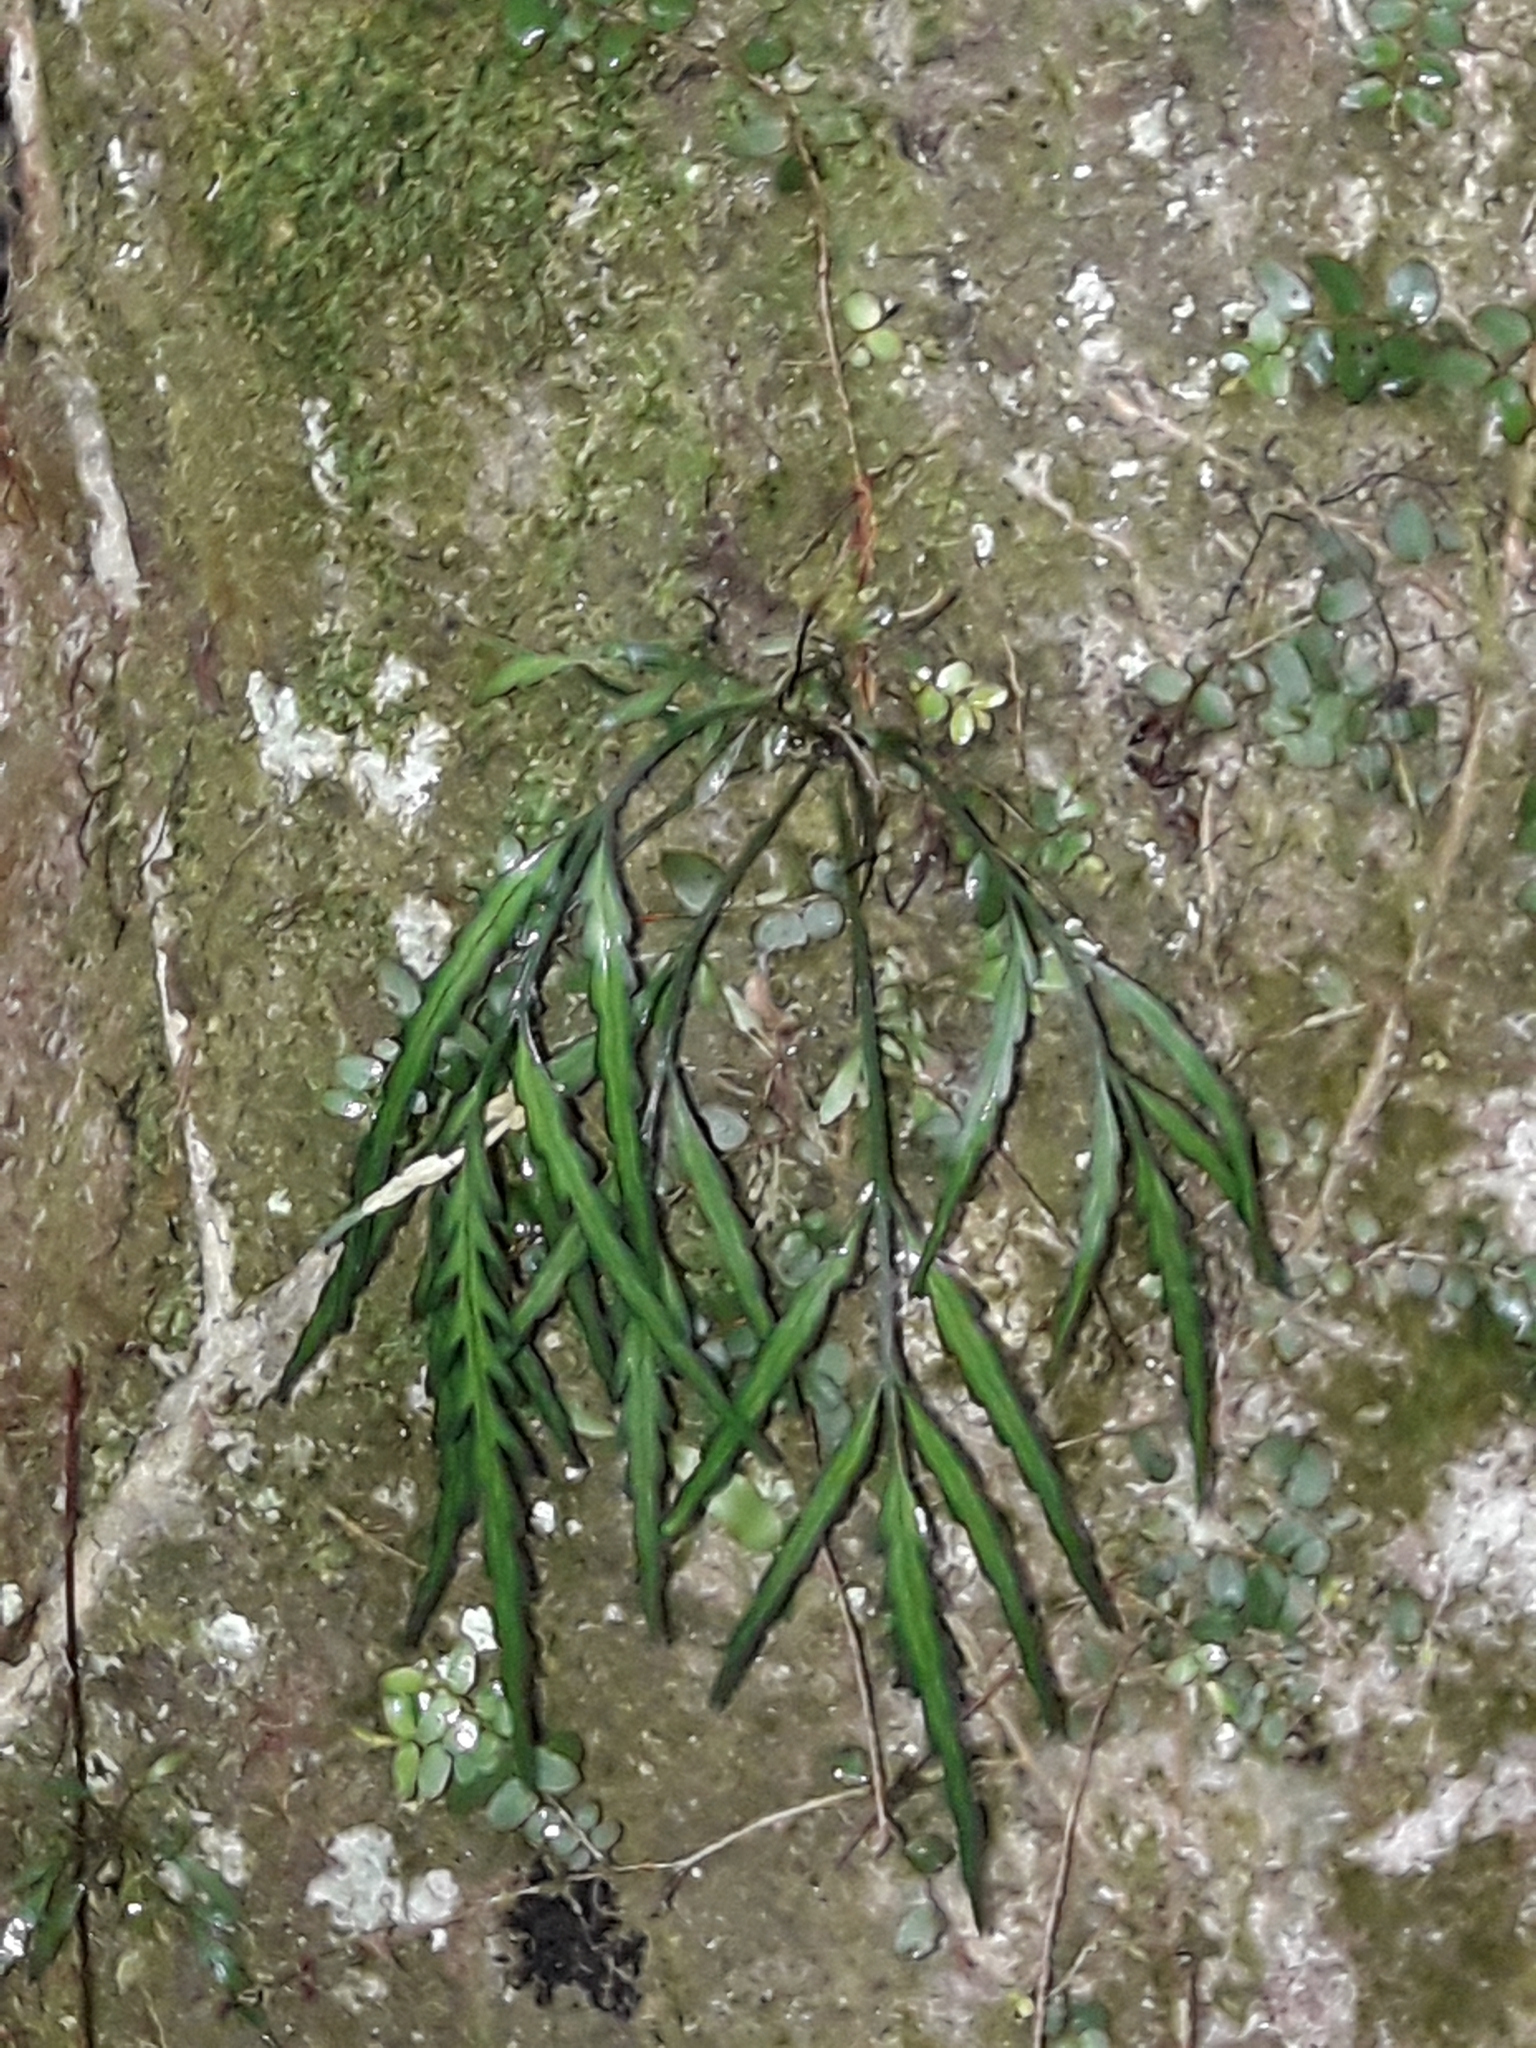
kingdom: Plantae
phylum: Tracheophyta
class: Polypodiopsida
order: Polypodiales
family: Aspleniaceae
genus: Asplenium
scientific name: Asplenium flaccidum
